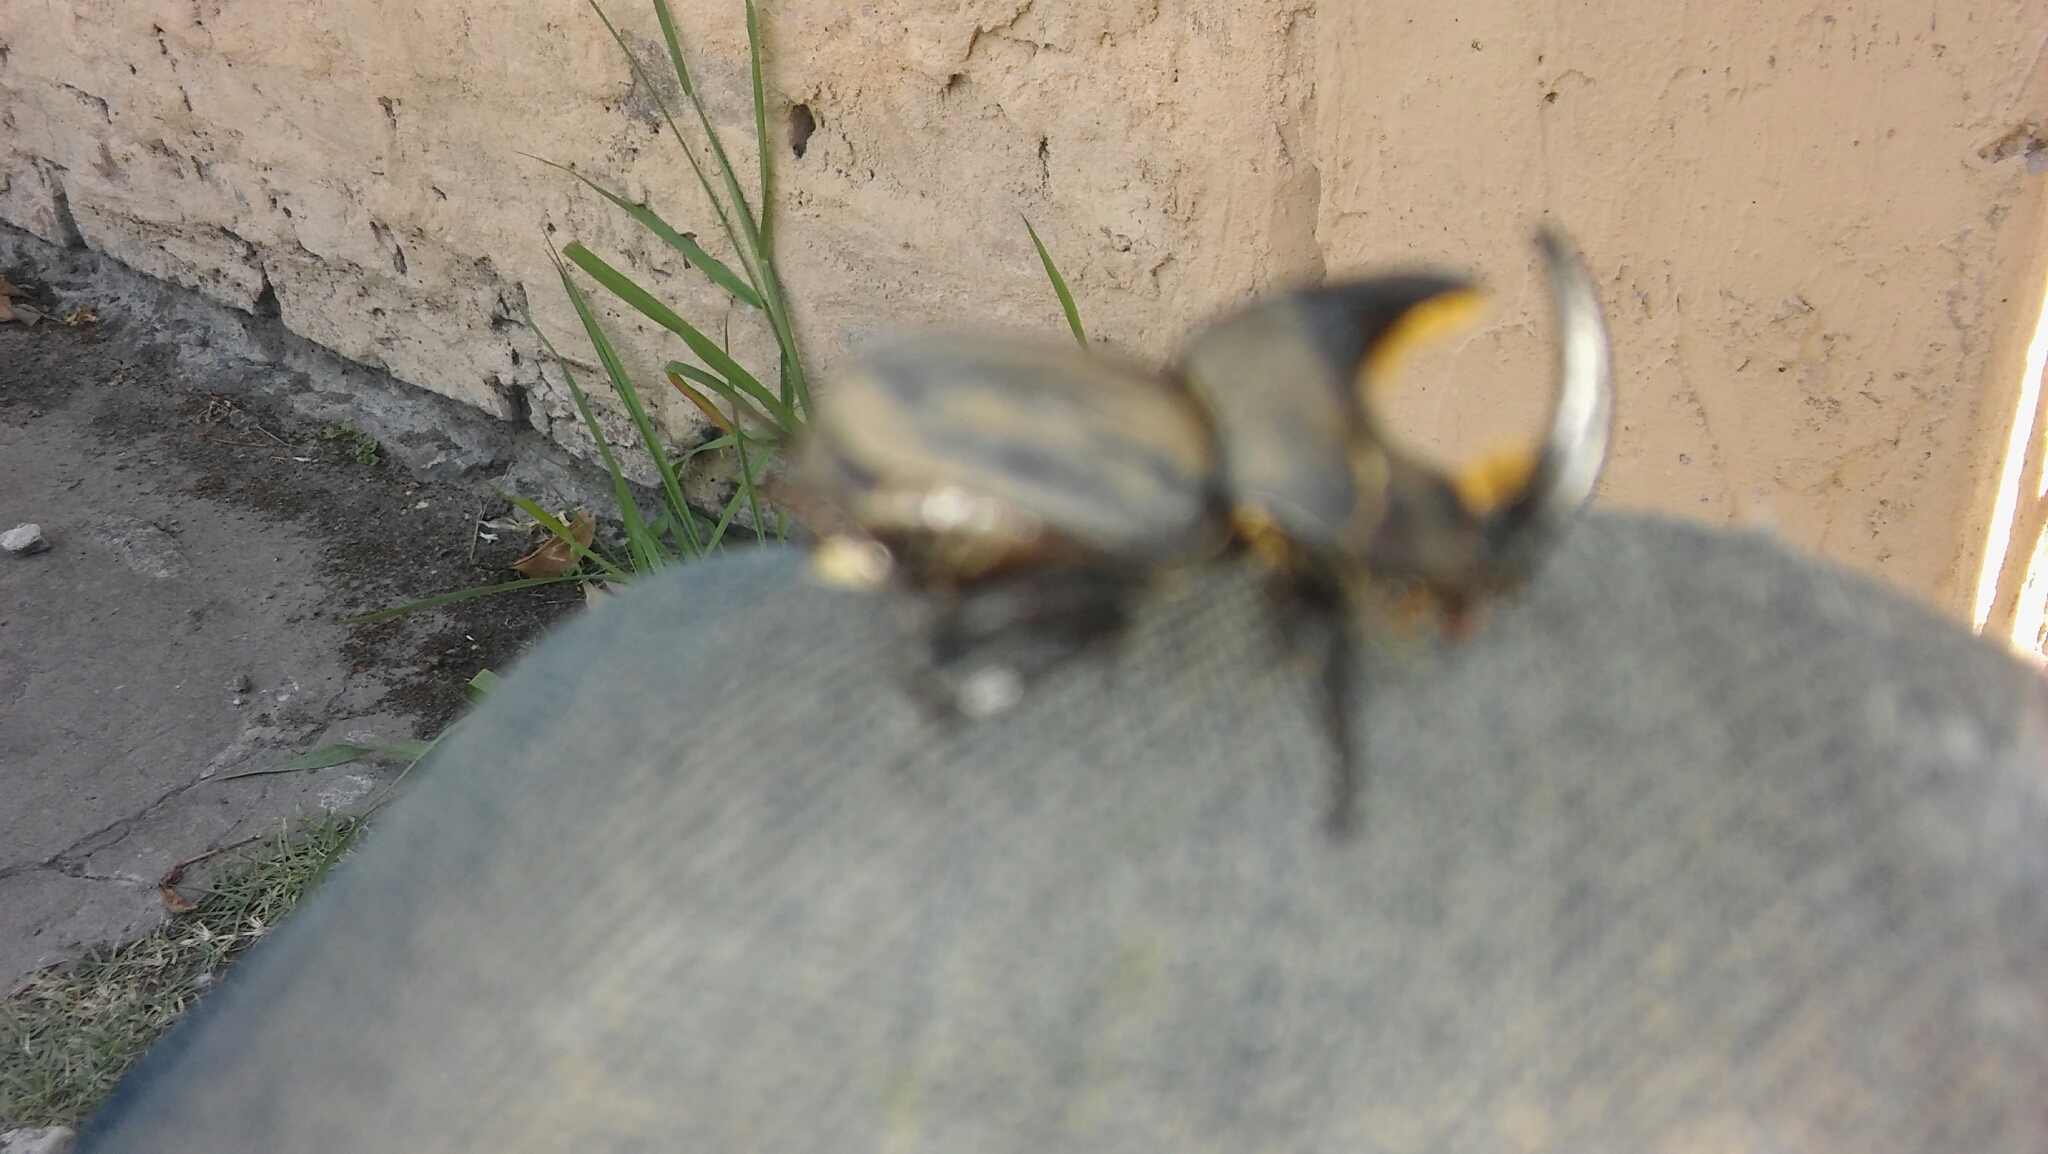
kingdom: Animalia
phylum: Arthropoda
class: Insecta
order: Coleoptera
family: Scarabaeidae
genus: Diloboderus
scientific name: Diloboderus abderus
